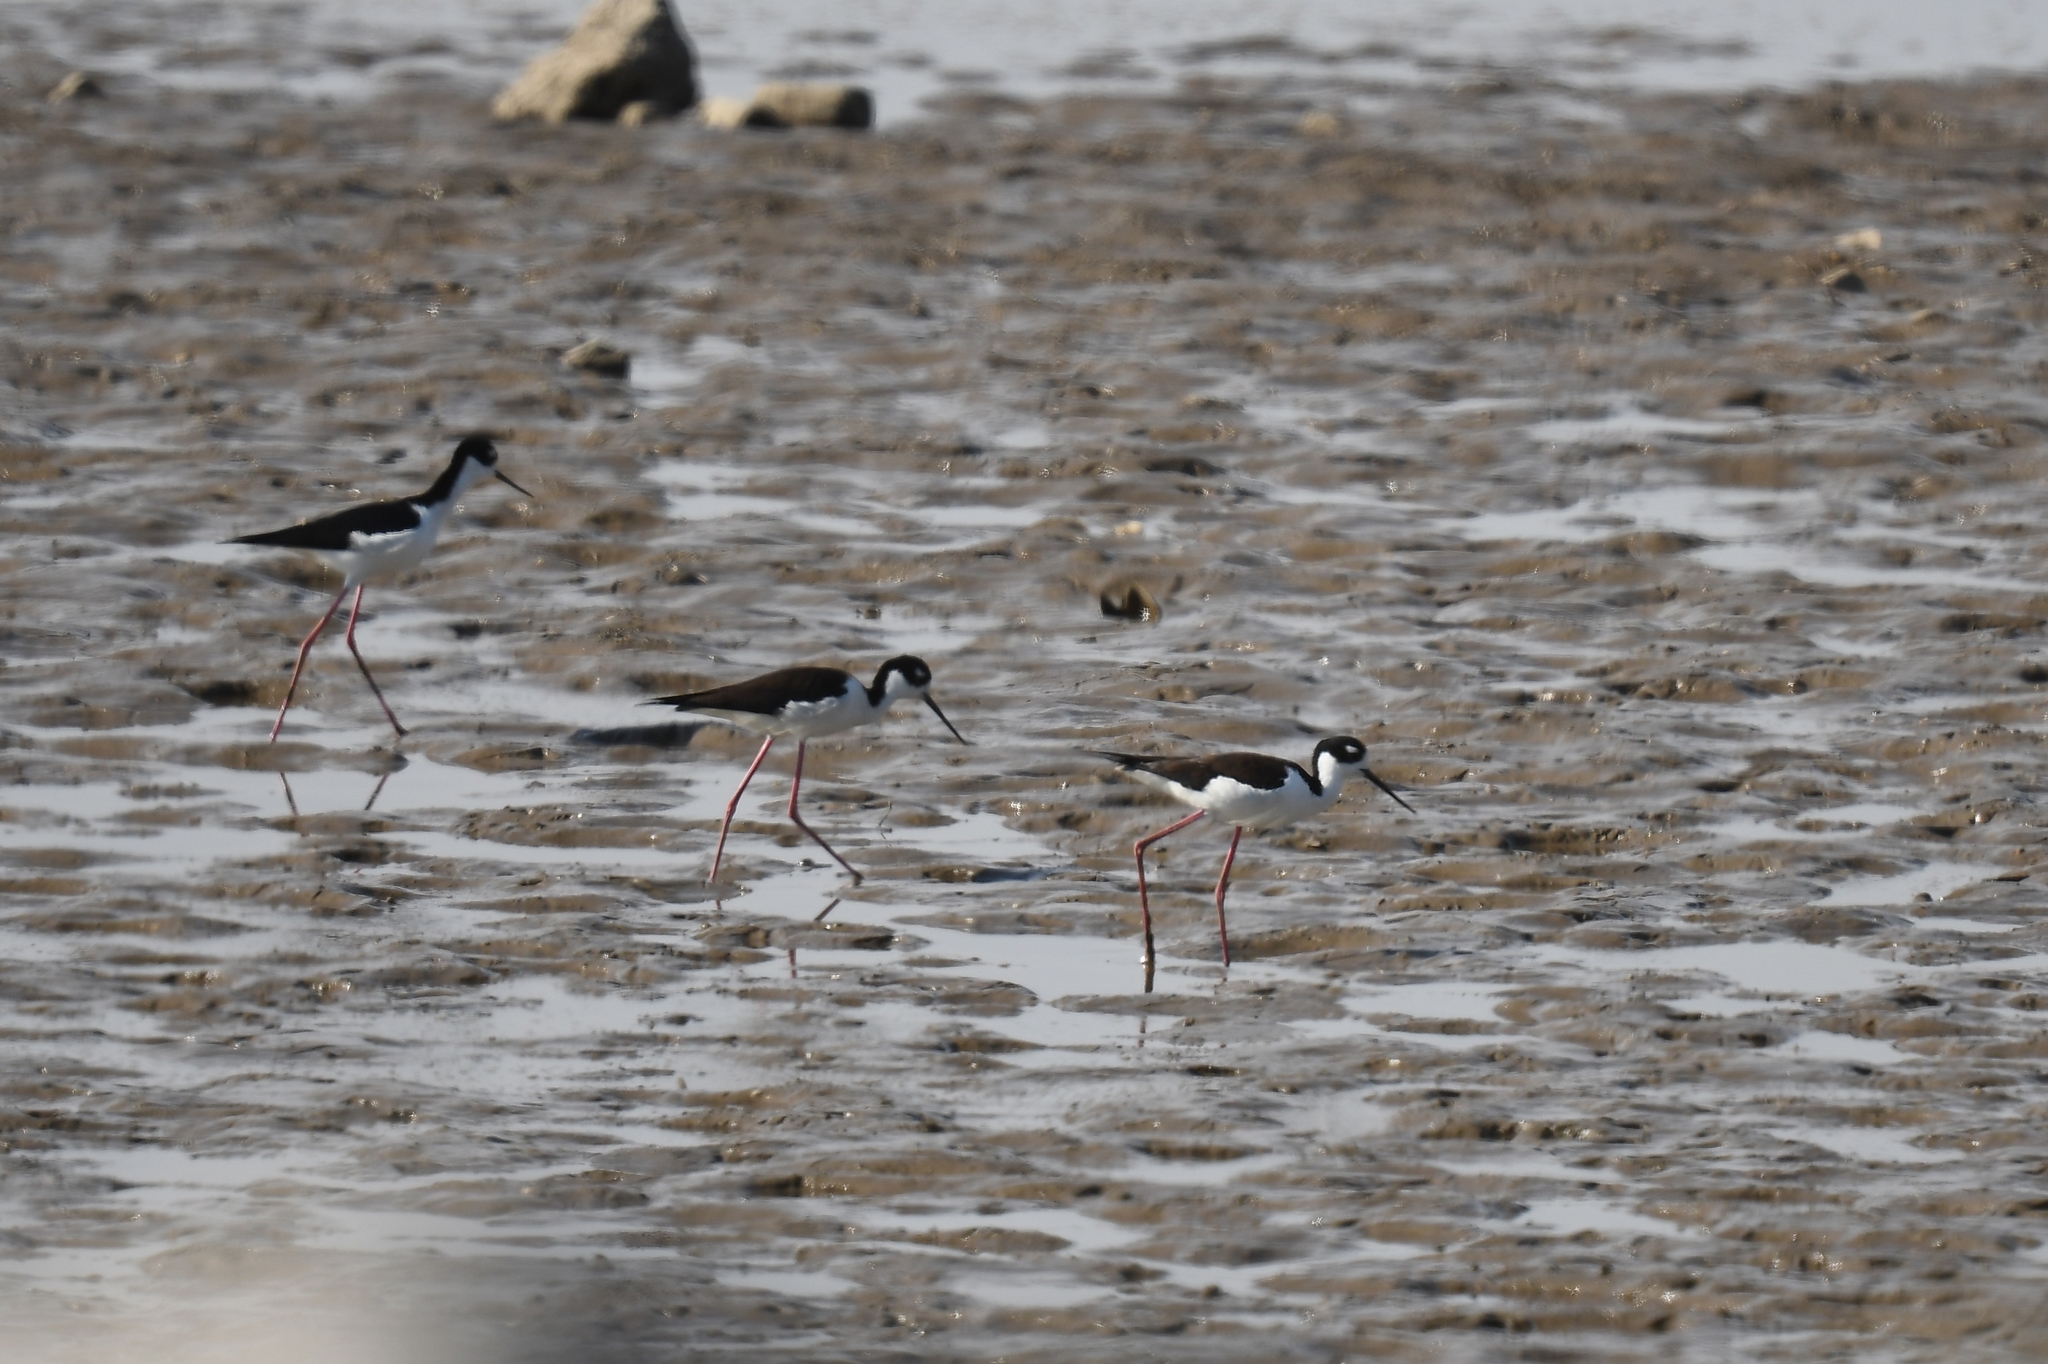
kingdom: Animalia
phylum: Chordata
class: Aves
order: Charadriiformes
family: Recurvirostridae
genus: Himantopus
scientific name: Himantopus mexicanus
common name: Black-necked stilt
